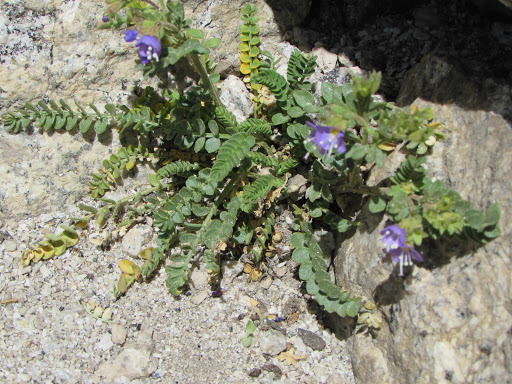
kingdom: Plantae
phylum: Tracheophyta
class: Magnoliopsida
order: Ericales
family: Polemoniaceae
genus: Polemonium
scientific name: Polemonium pulcherrimum
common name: Short jacob's-ladder
